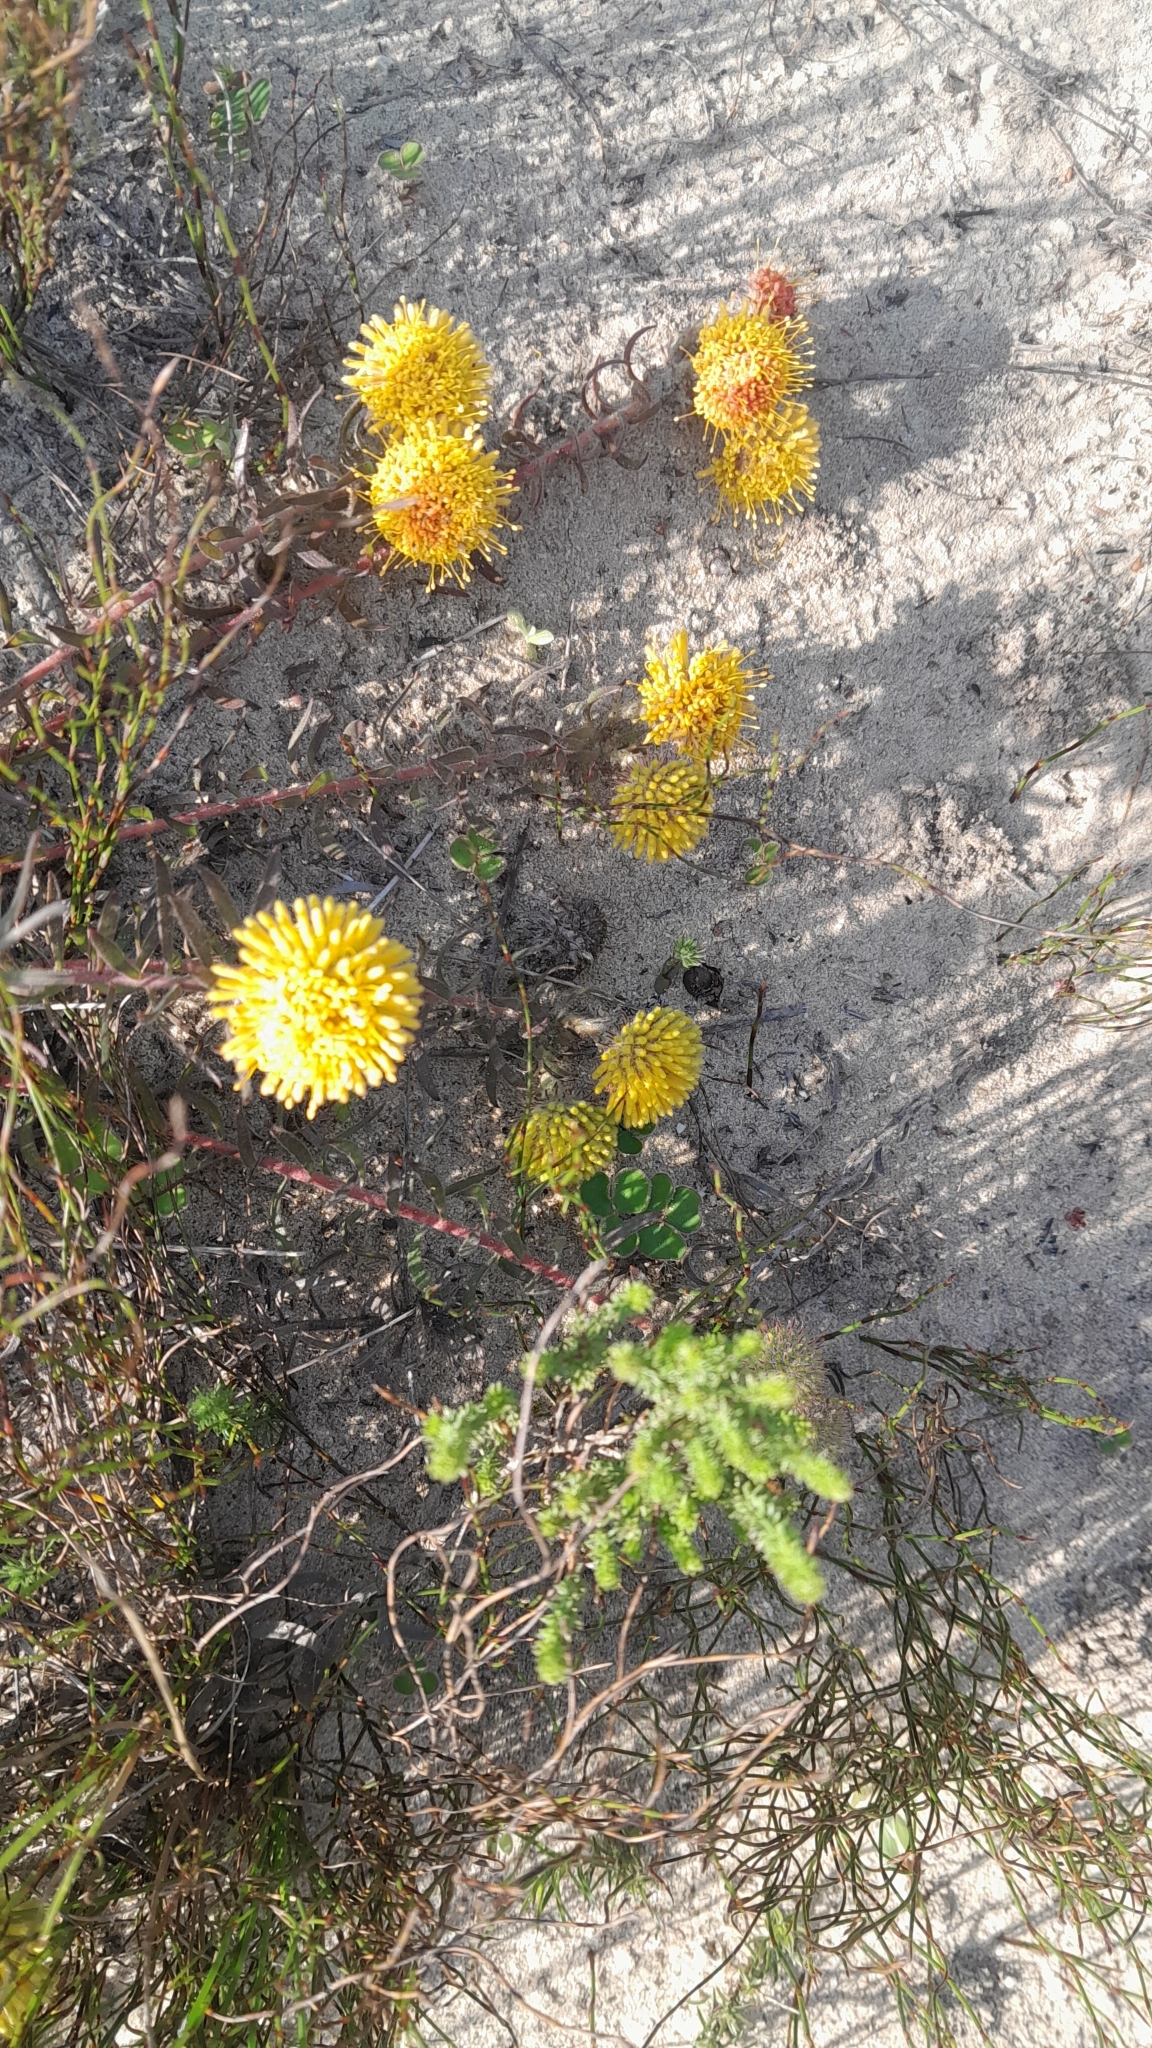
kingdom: Plantae
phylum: Tracheophyta
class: Magnoliopsida
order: Proteales
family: Proteaceae
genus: Leucospermum
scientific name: Leucospermum prostratum
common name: Yellow-trailing pincushion
